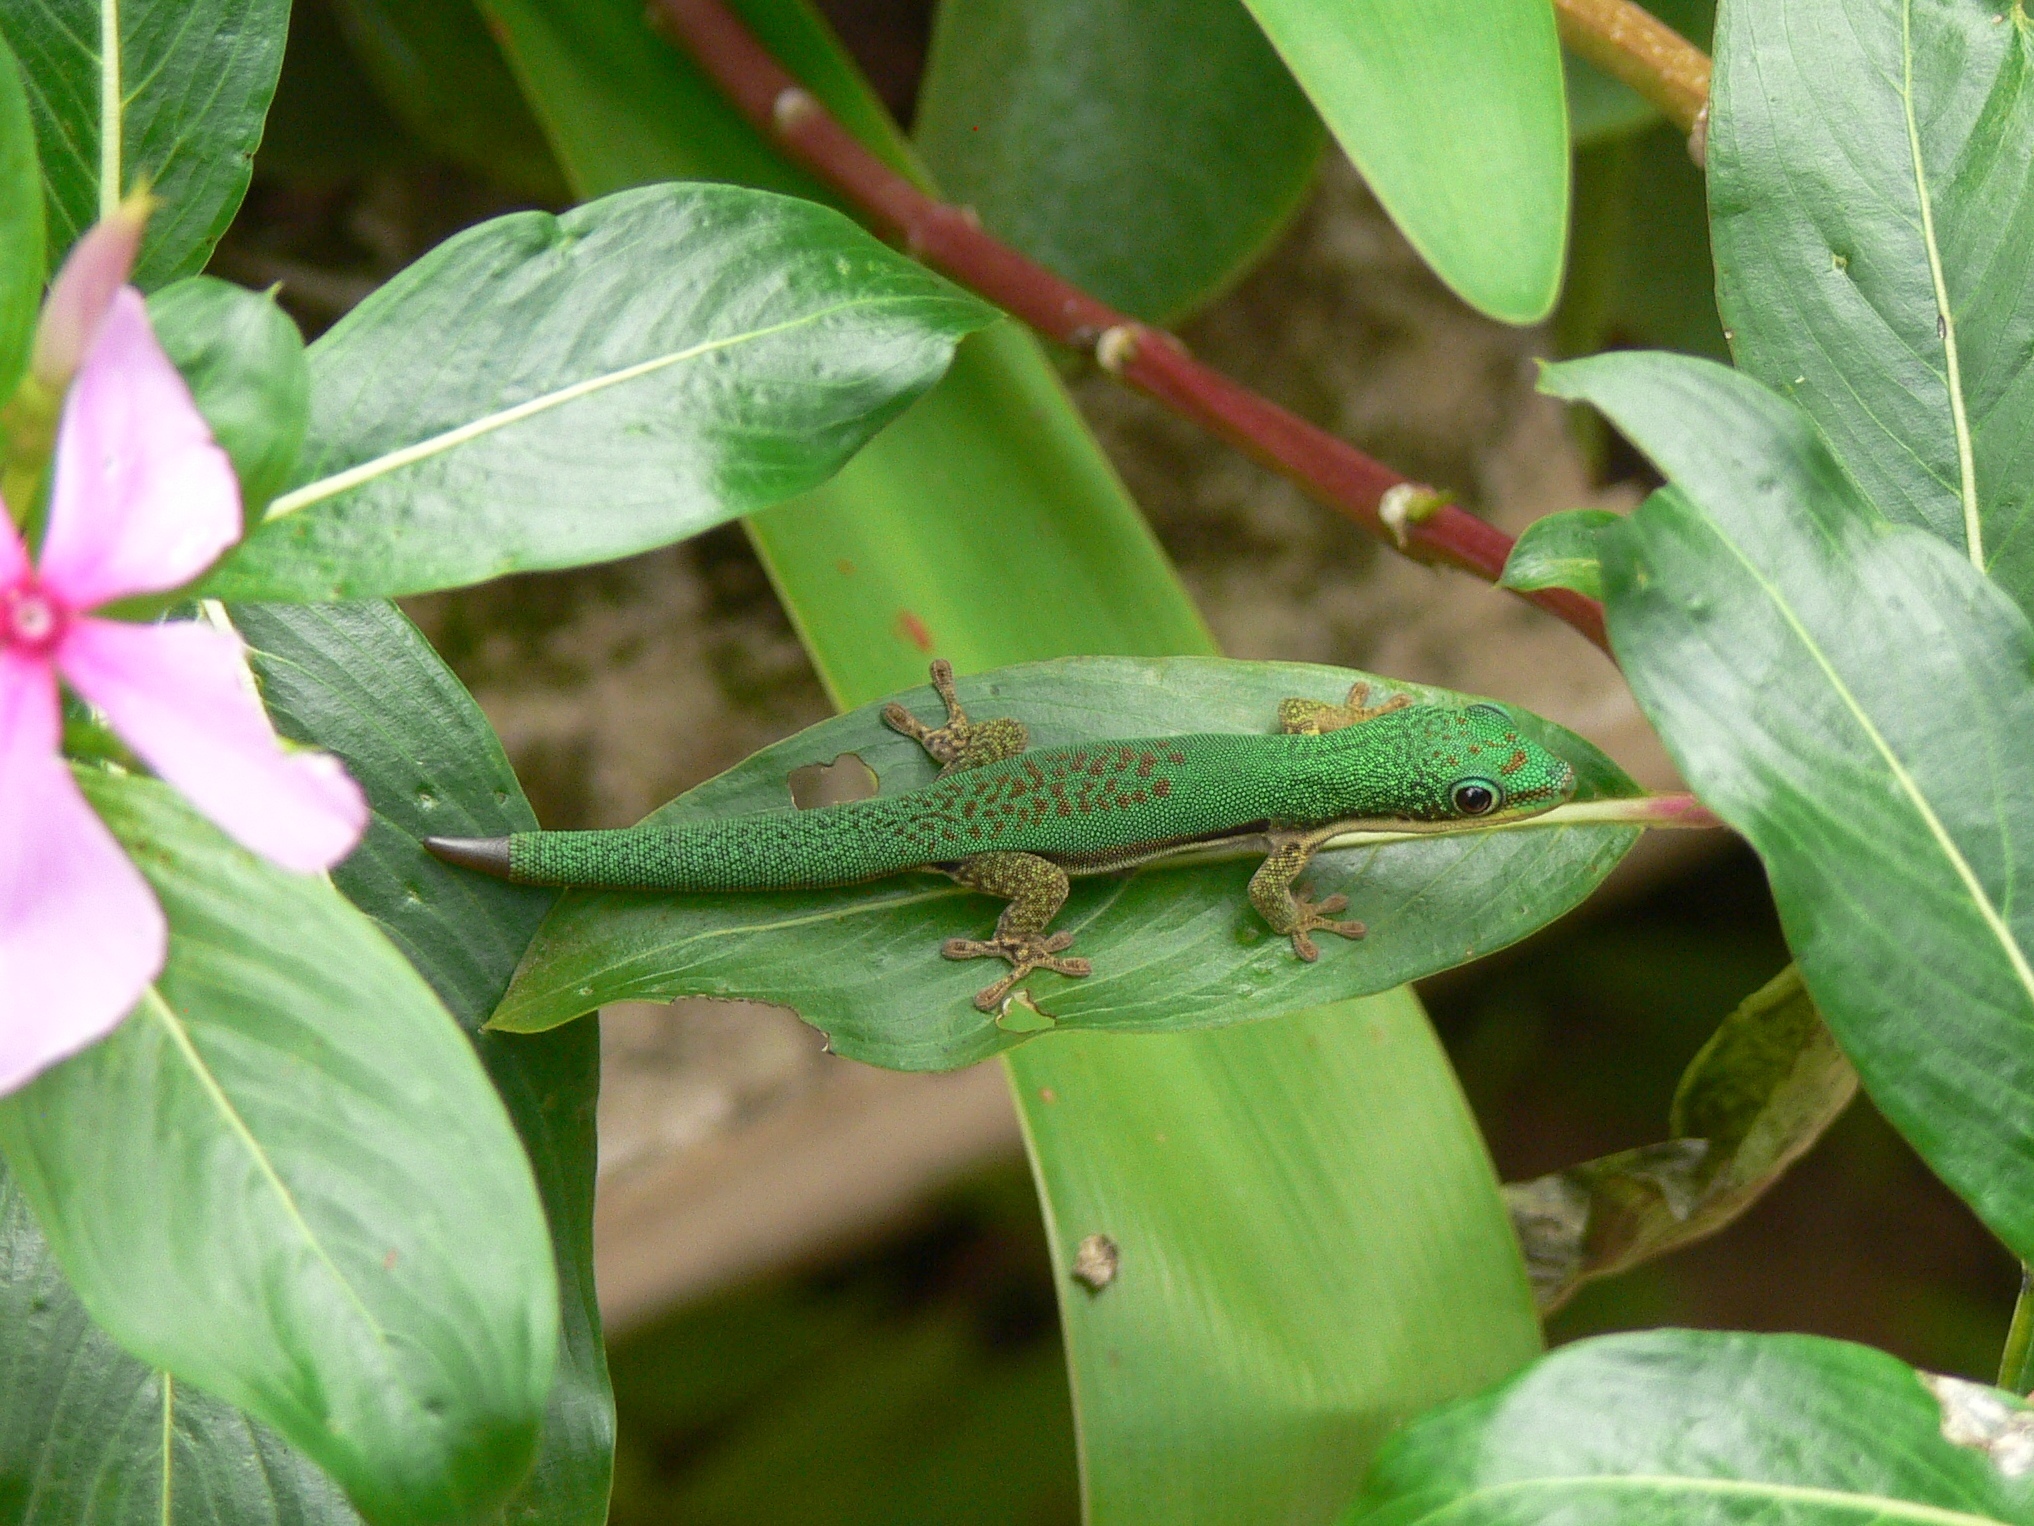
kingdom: Animalia
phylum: Chordata
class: Squamata
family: Gekkonidae
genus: Phelsuma
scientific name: Phelsuma lineata
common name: Lined day gecko
